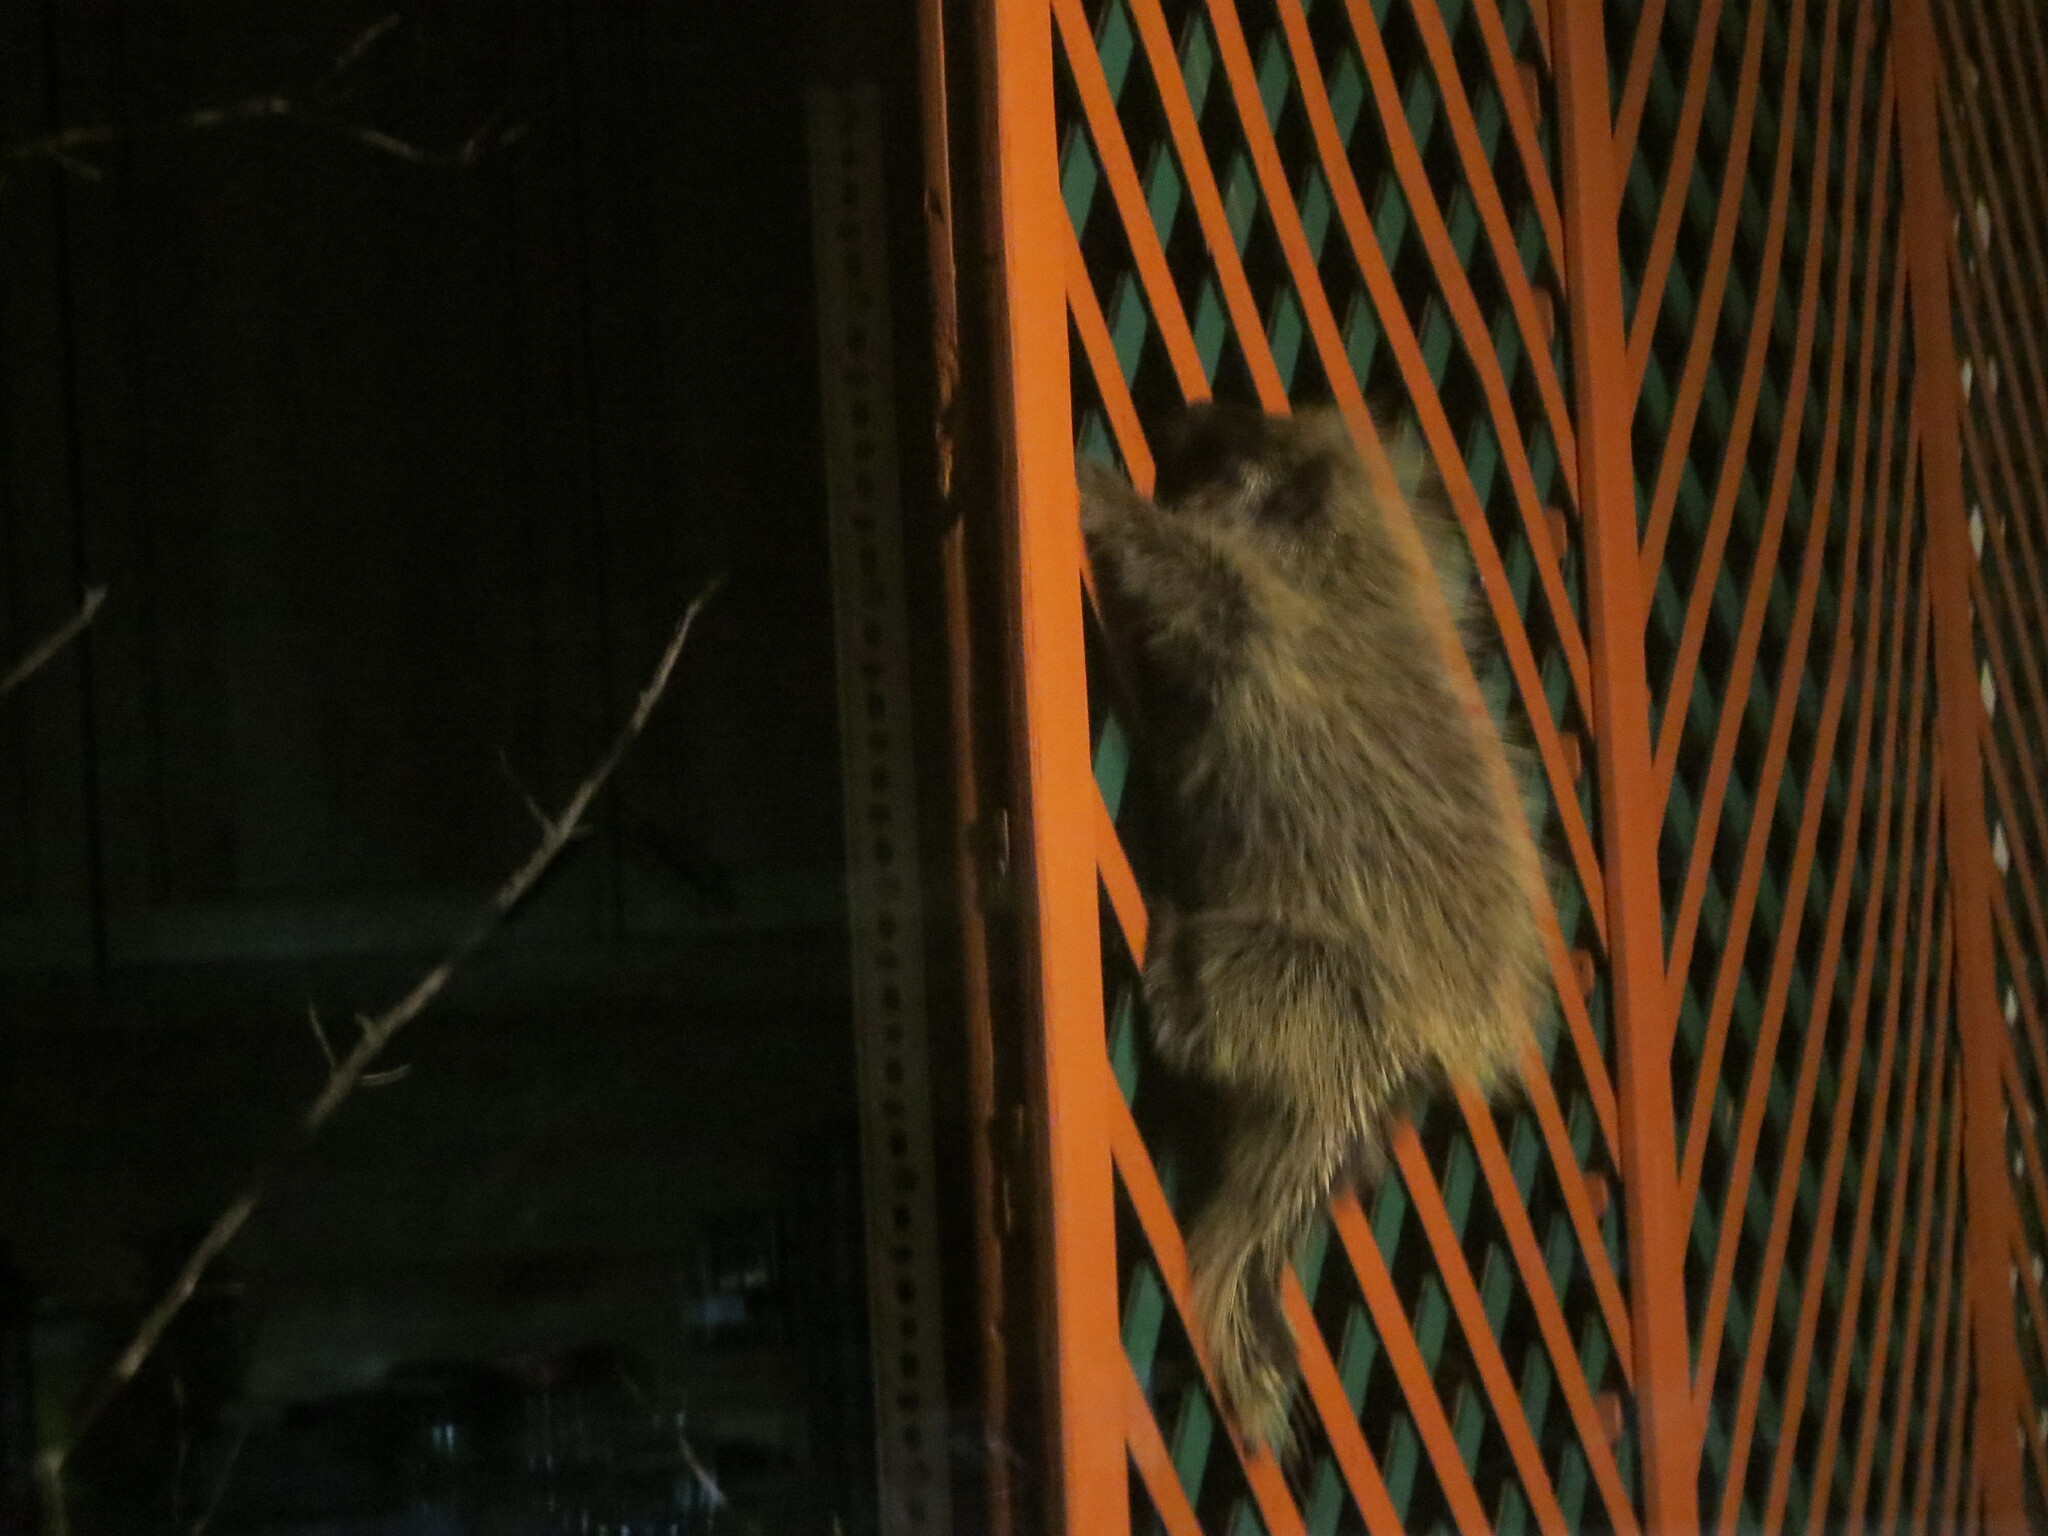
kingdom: Animalia
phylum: Chordata
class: Mammalia
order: Rodentia
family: Erethizontidae
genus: Erethizon
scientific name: Erethizon dorsatus
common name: North american porcupine
